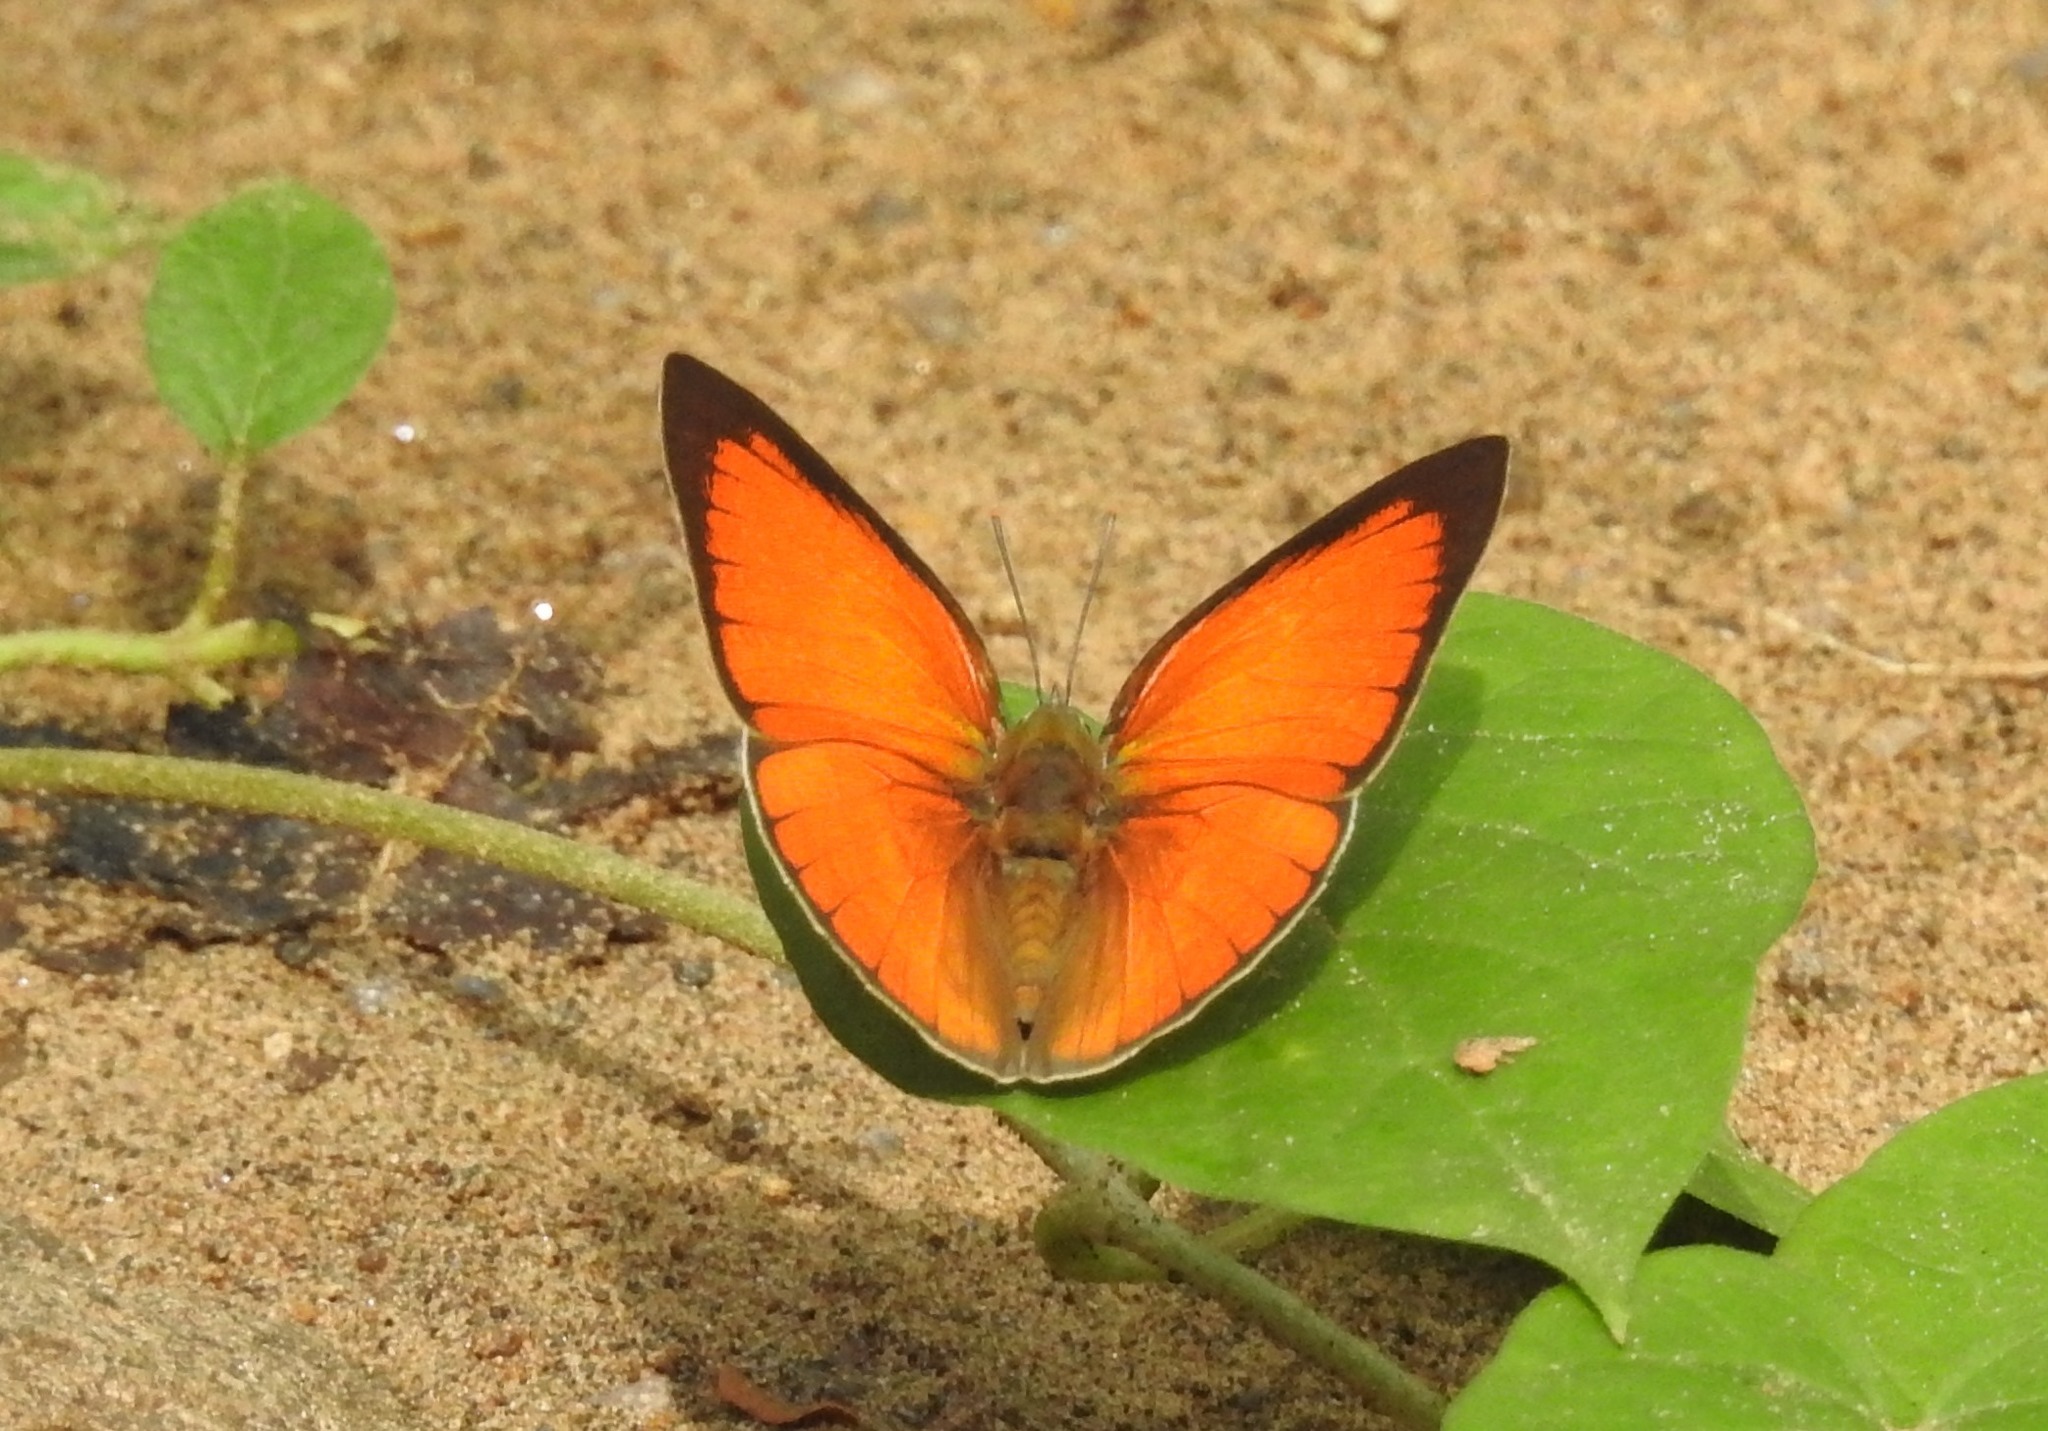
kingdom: Animalia
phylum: Arthropoda
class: Insecta
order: Lepidoptera
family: Lycaenidae
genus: Curetis
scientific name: Curetis thetis
